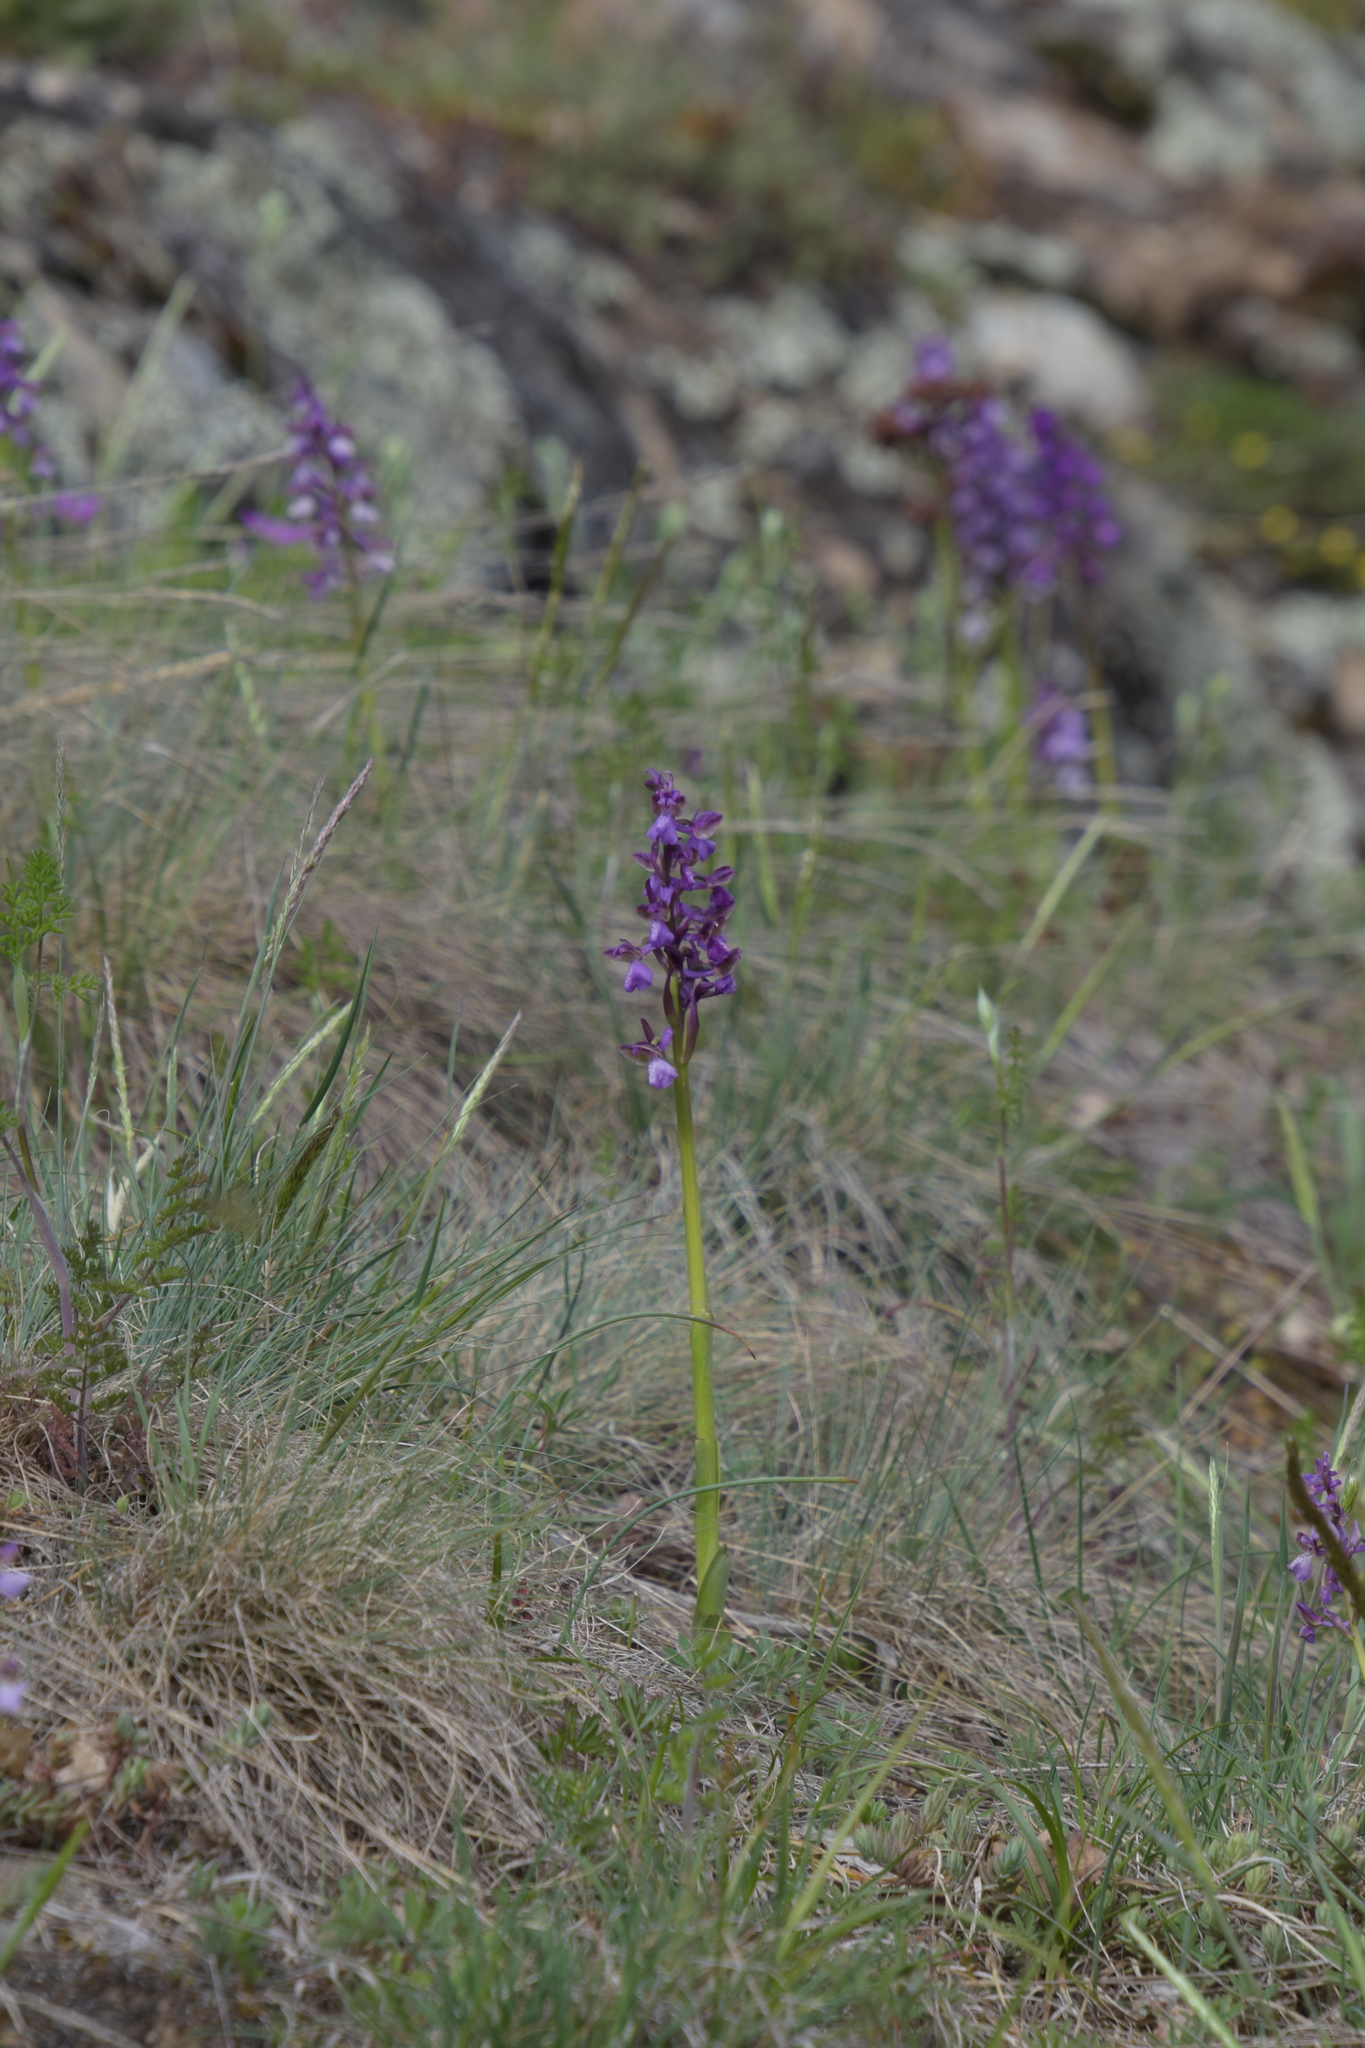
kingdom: Plantae
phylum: Tracheophyta
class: Liliopsida
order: Asparagales
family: Orchidaceae
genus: Anacamptis
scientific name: Anacamptis morio
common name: Green-winged orchid
